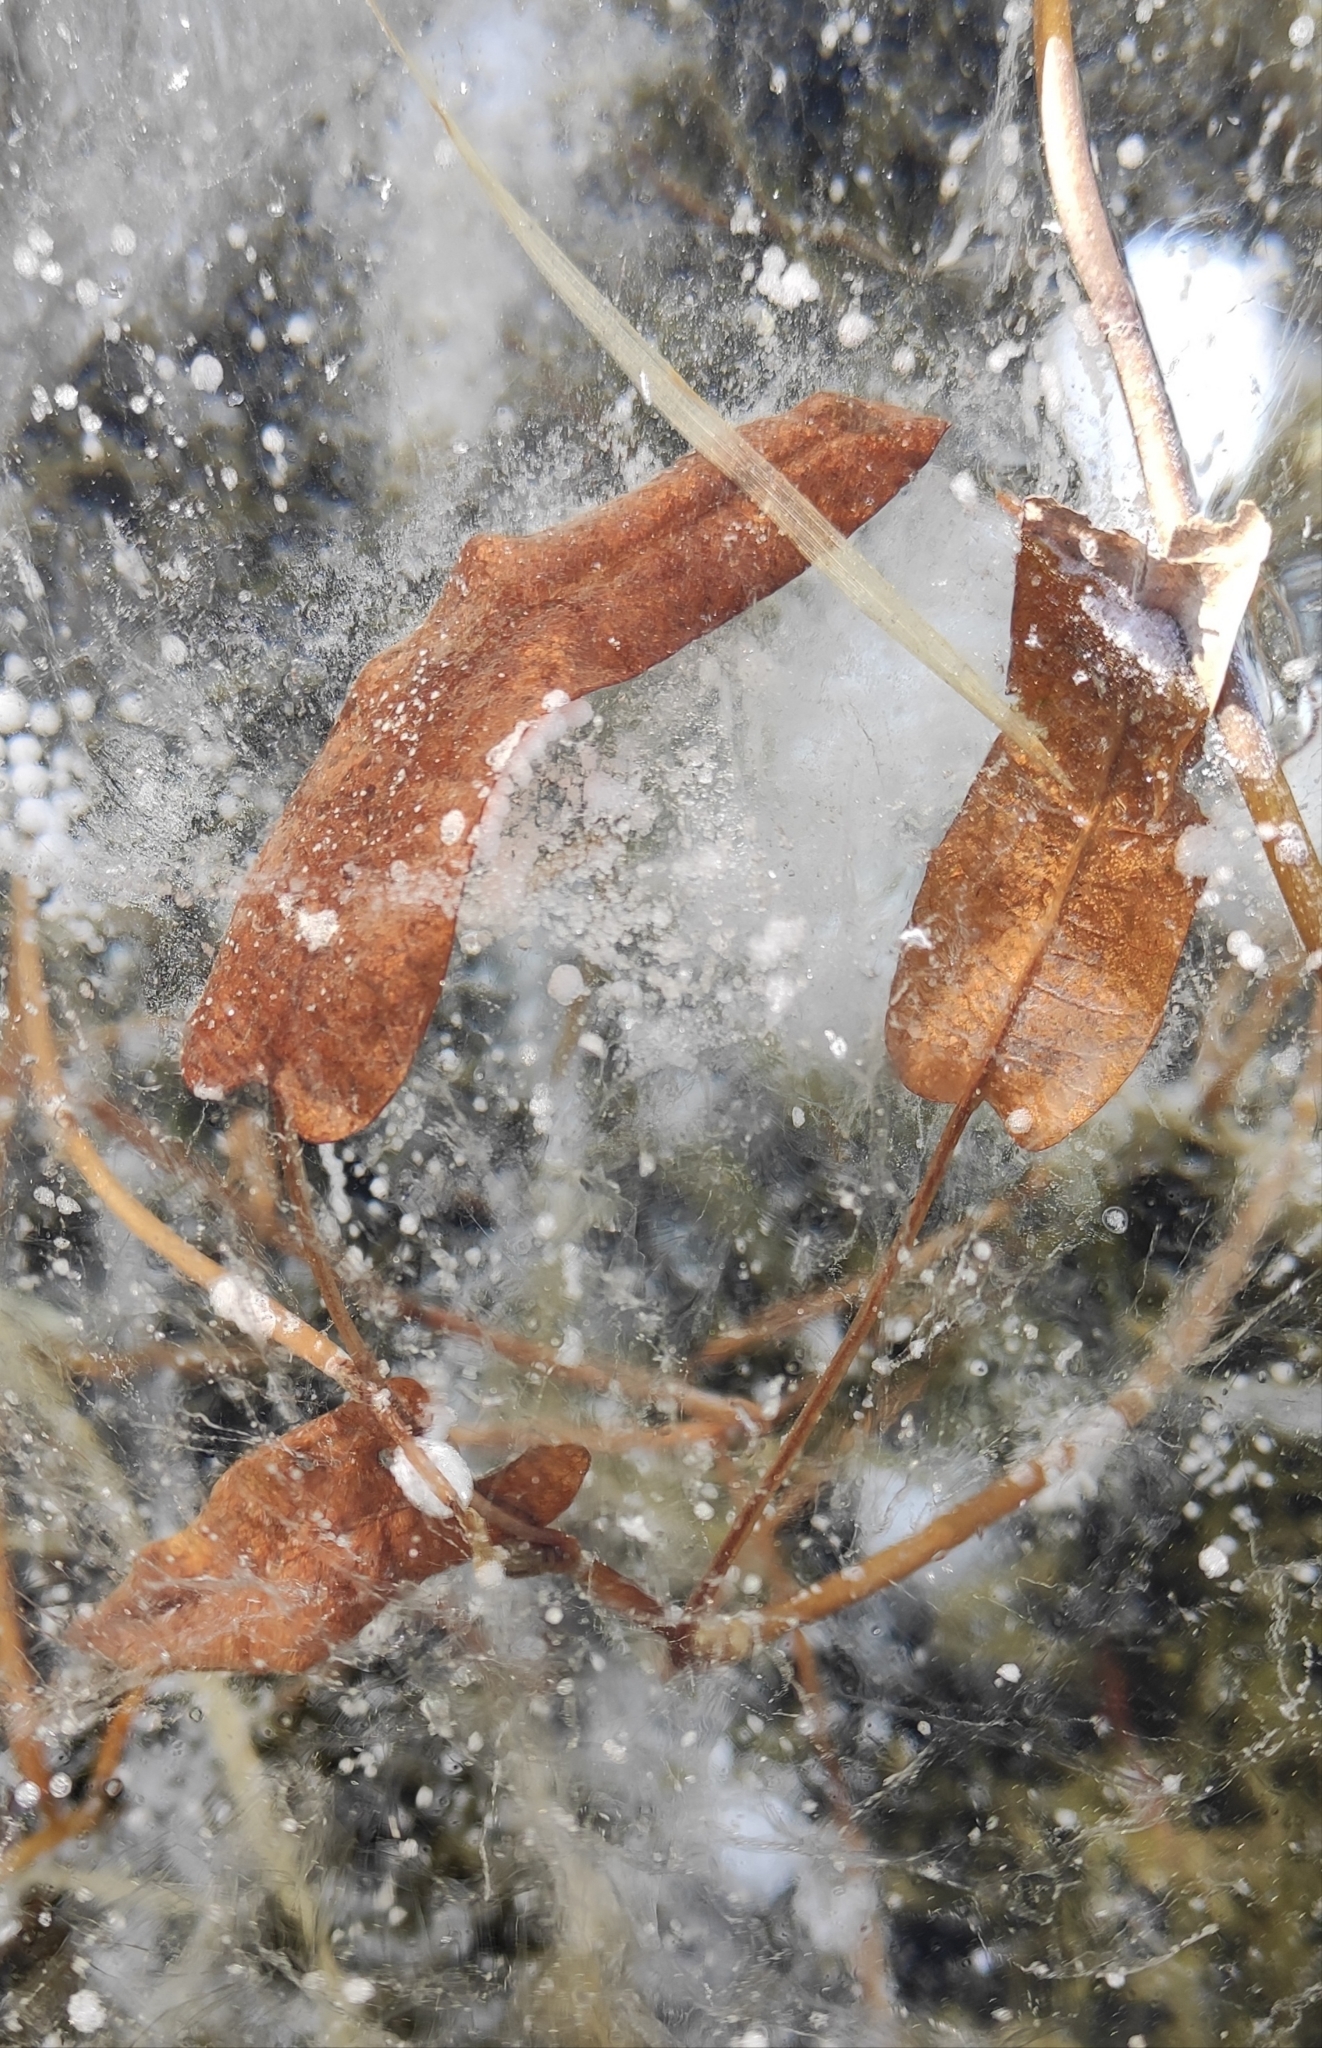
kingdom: Plantae
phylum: Tracheophyta
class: Magnoliopsida
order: Caryophyllales
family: Polygonaceae
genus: Persicaria
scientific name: Persicaria amphibia
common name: Amphibious bistort
